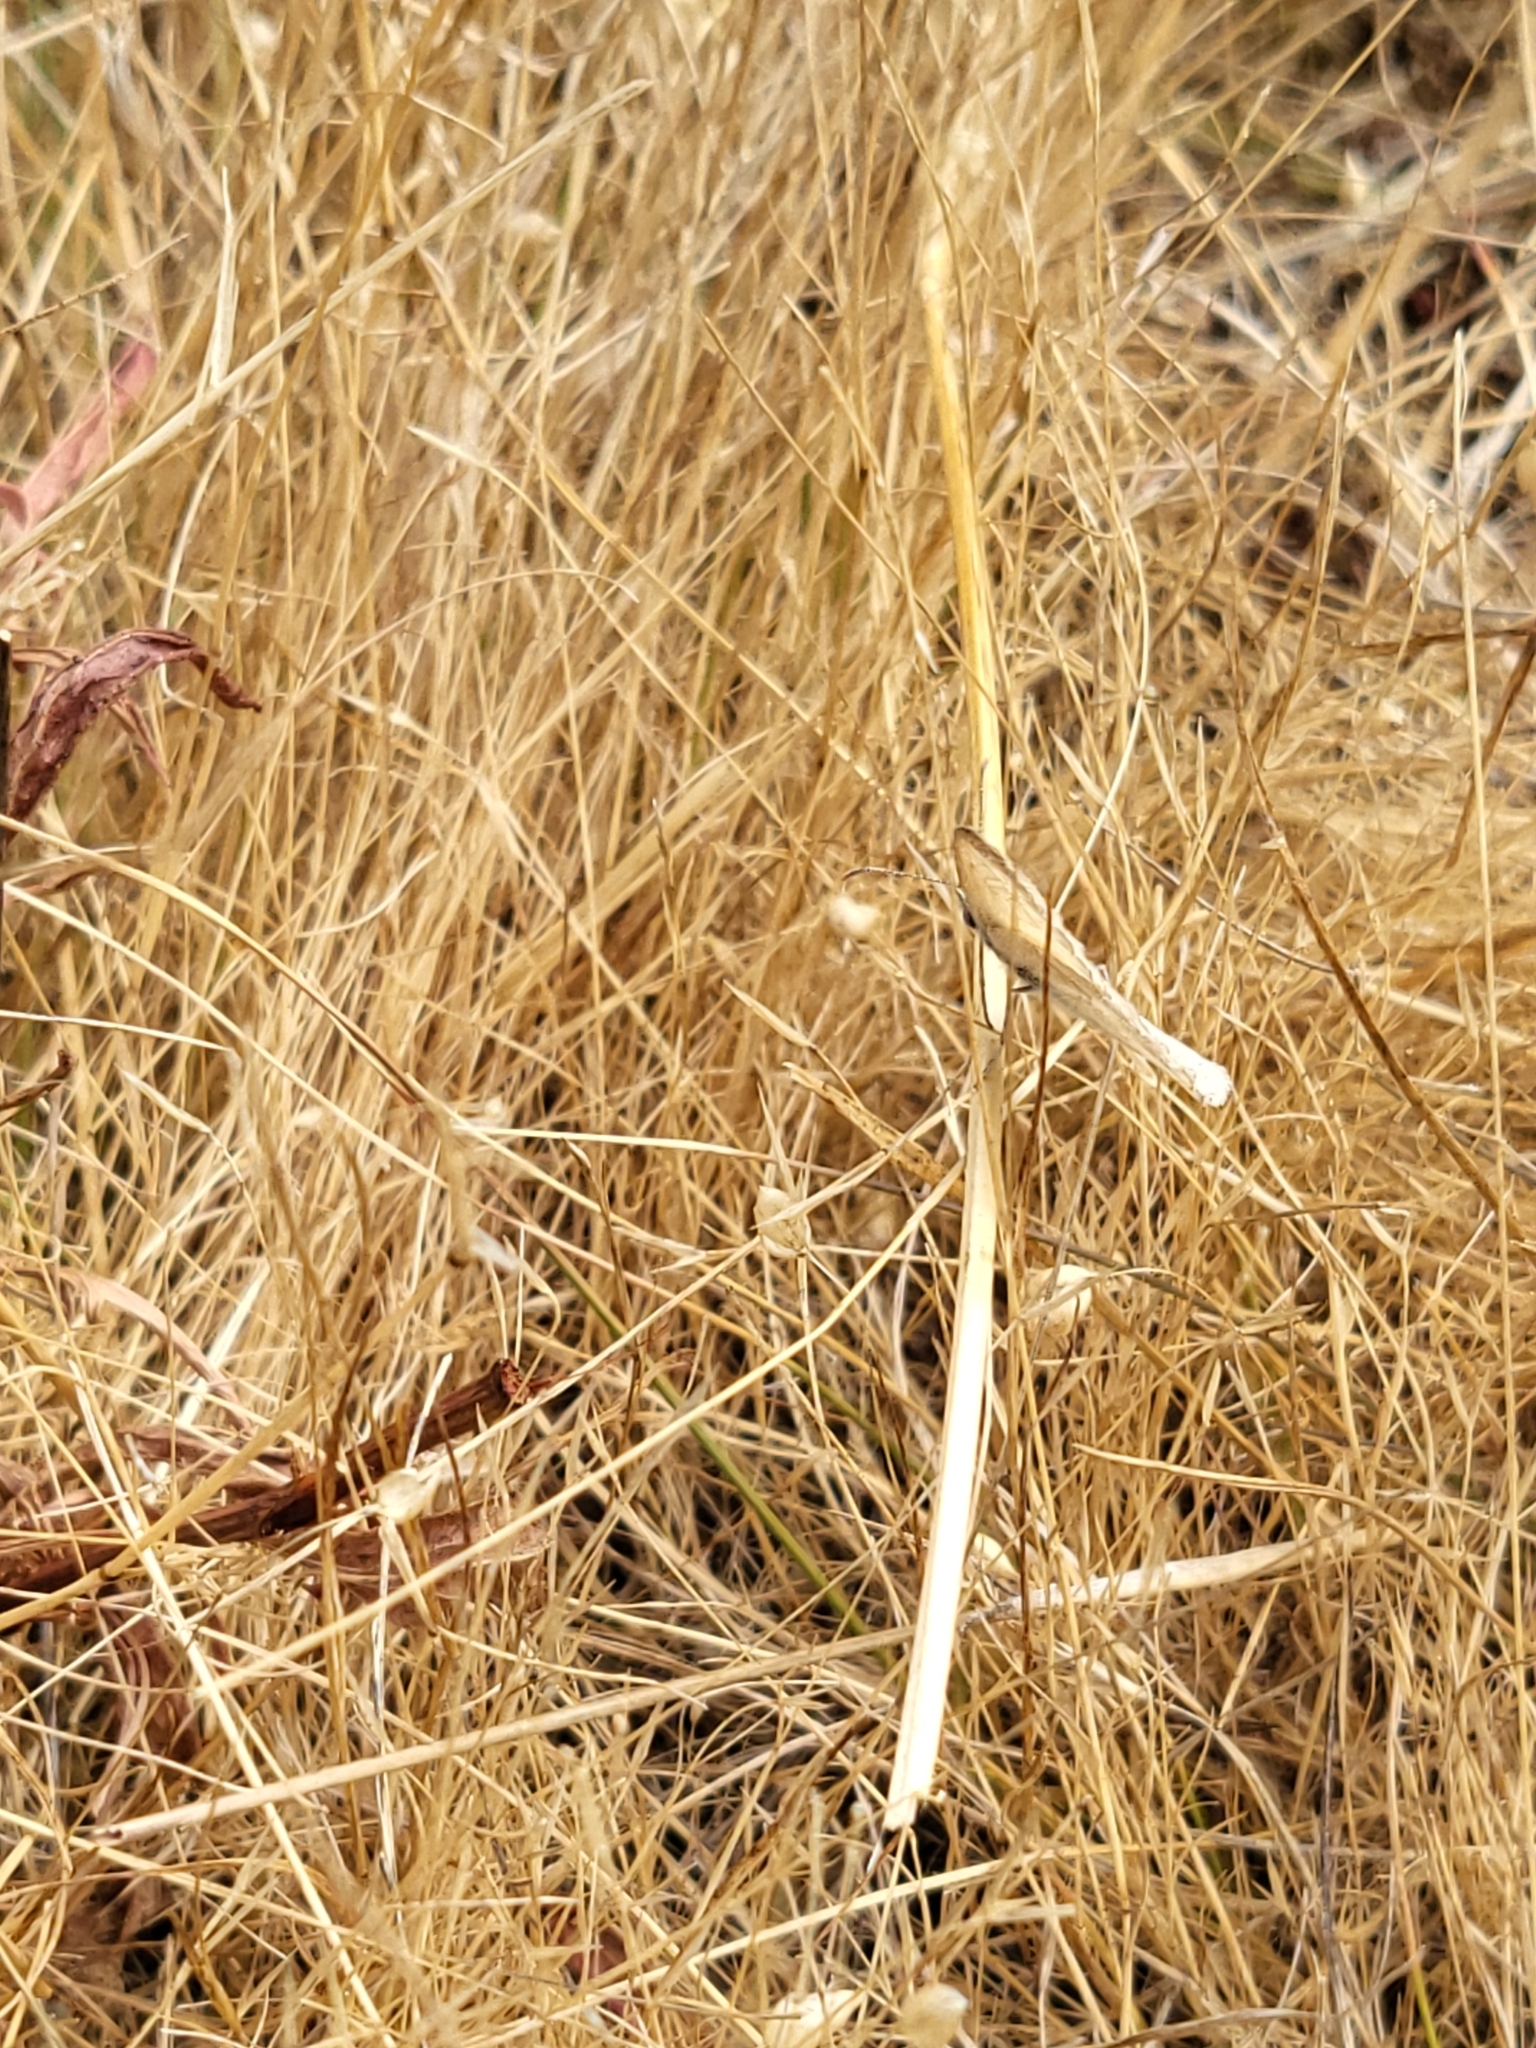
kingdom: Animalia
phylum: Arthropoda
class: Insecta
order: Lepidoptera
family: Nymphalidae
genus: Coenonympha
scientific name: Coenonympha california
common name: Common ringlet
